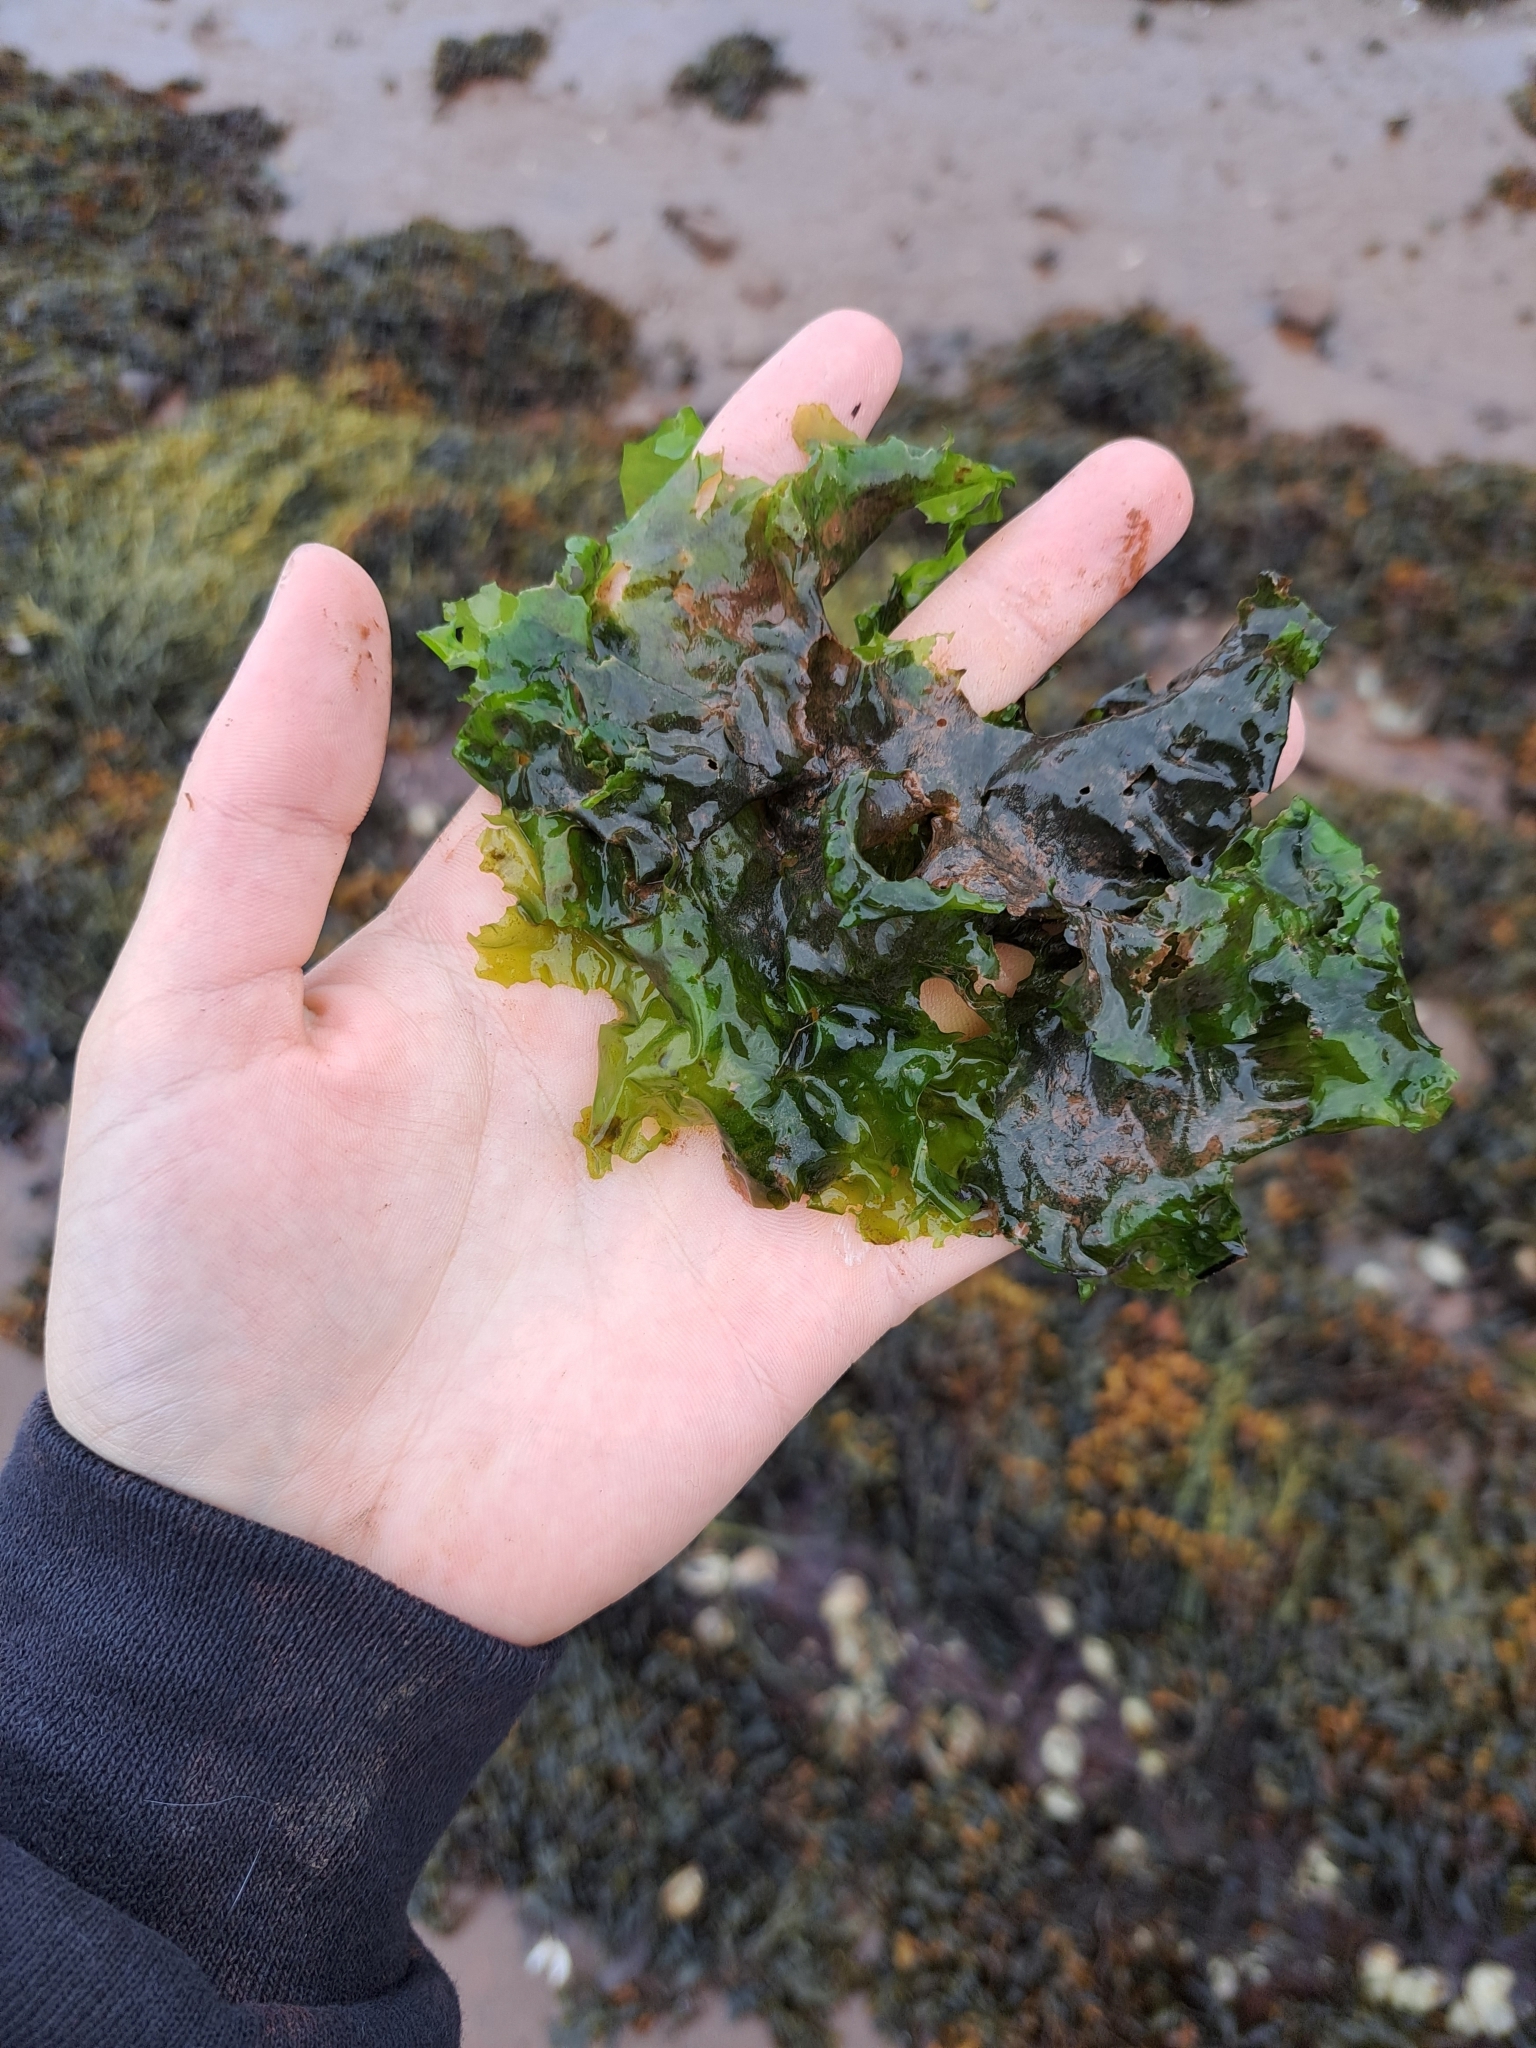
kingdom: Plantae
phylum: Chlorophyta
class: Ulvophyceae
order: Ulvales
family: Ulvaceae
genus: Ulva
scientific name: Ulva lactuca
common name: Sea lettuce
